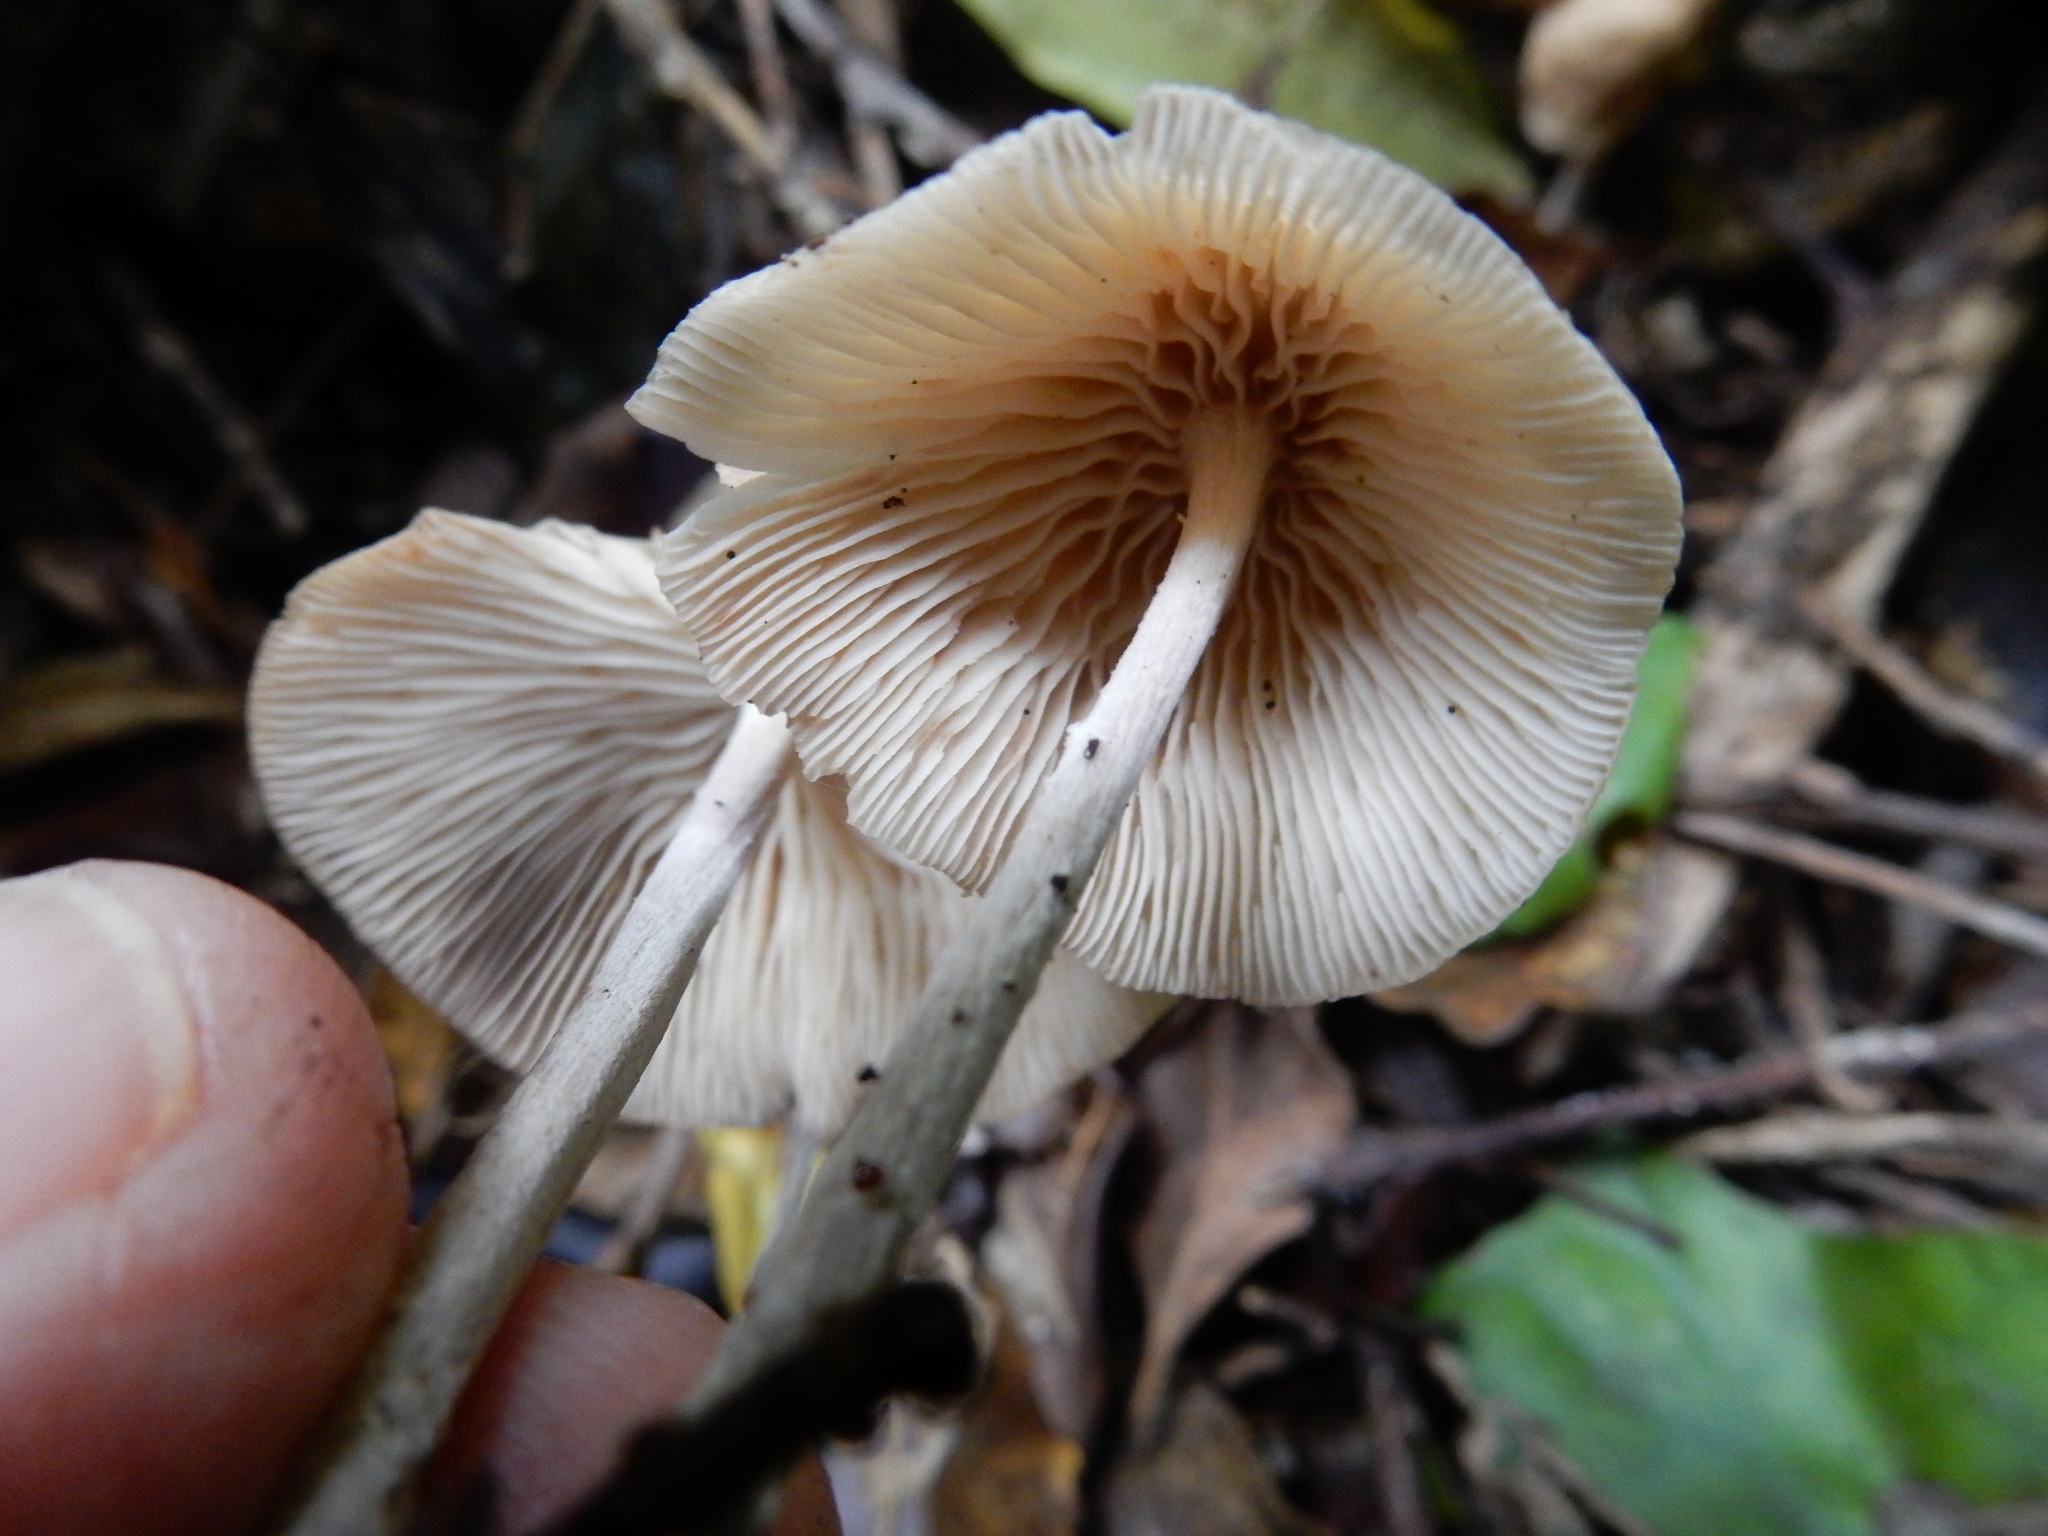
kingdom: Fungi
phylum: Basidiomycota
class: Agaricomycetes
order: Agaricales
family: Omphalotaceae
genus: Collybiopsis
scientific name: Collybiopsis subpruinosa
